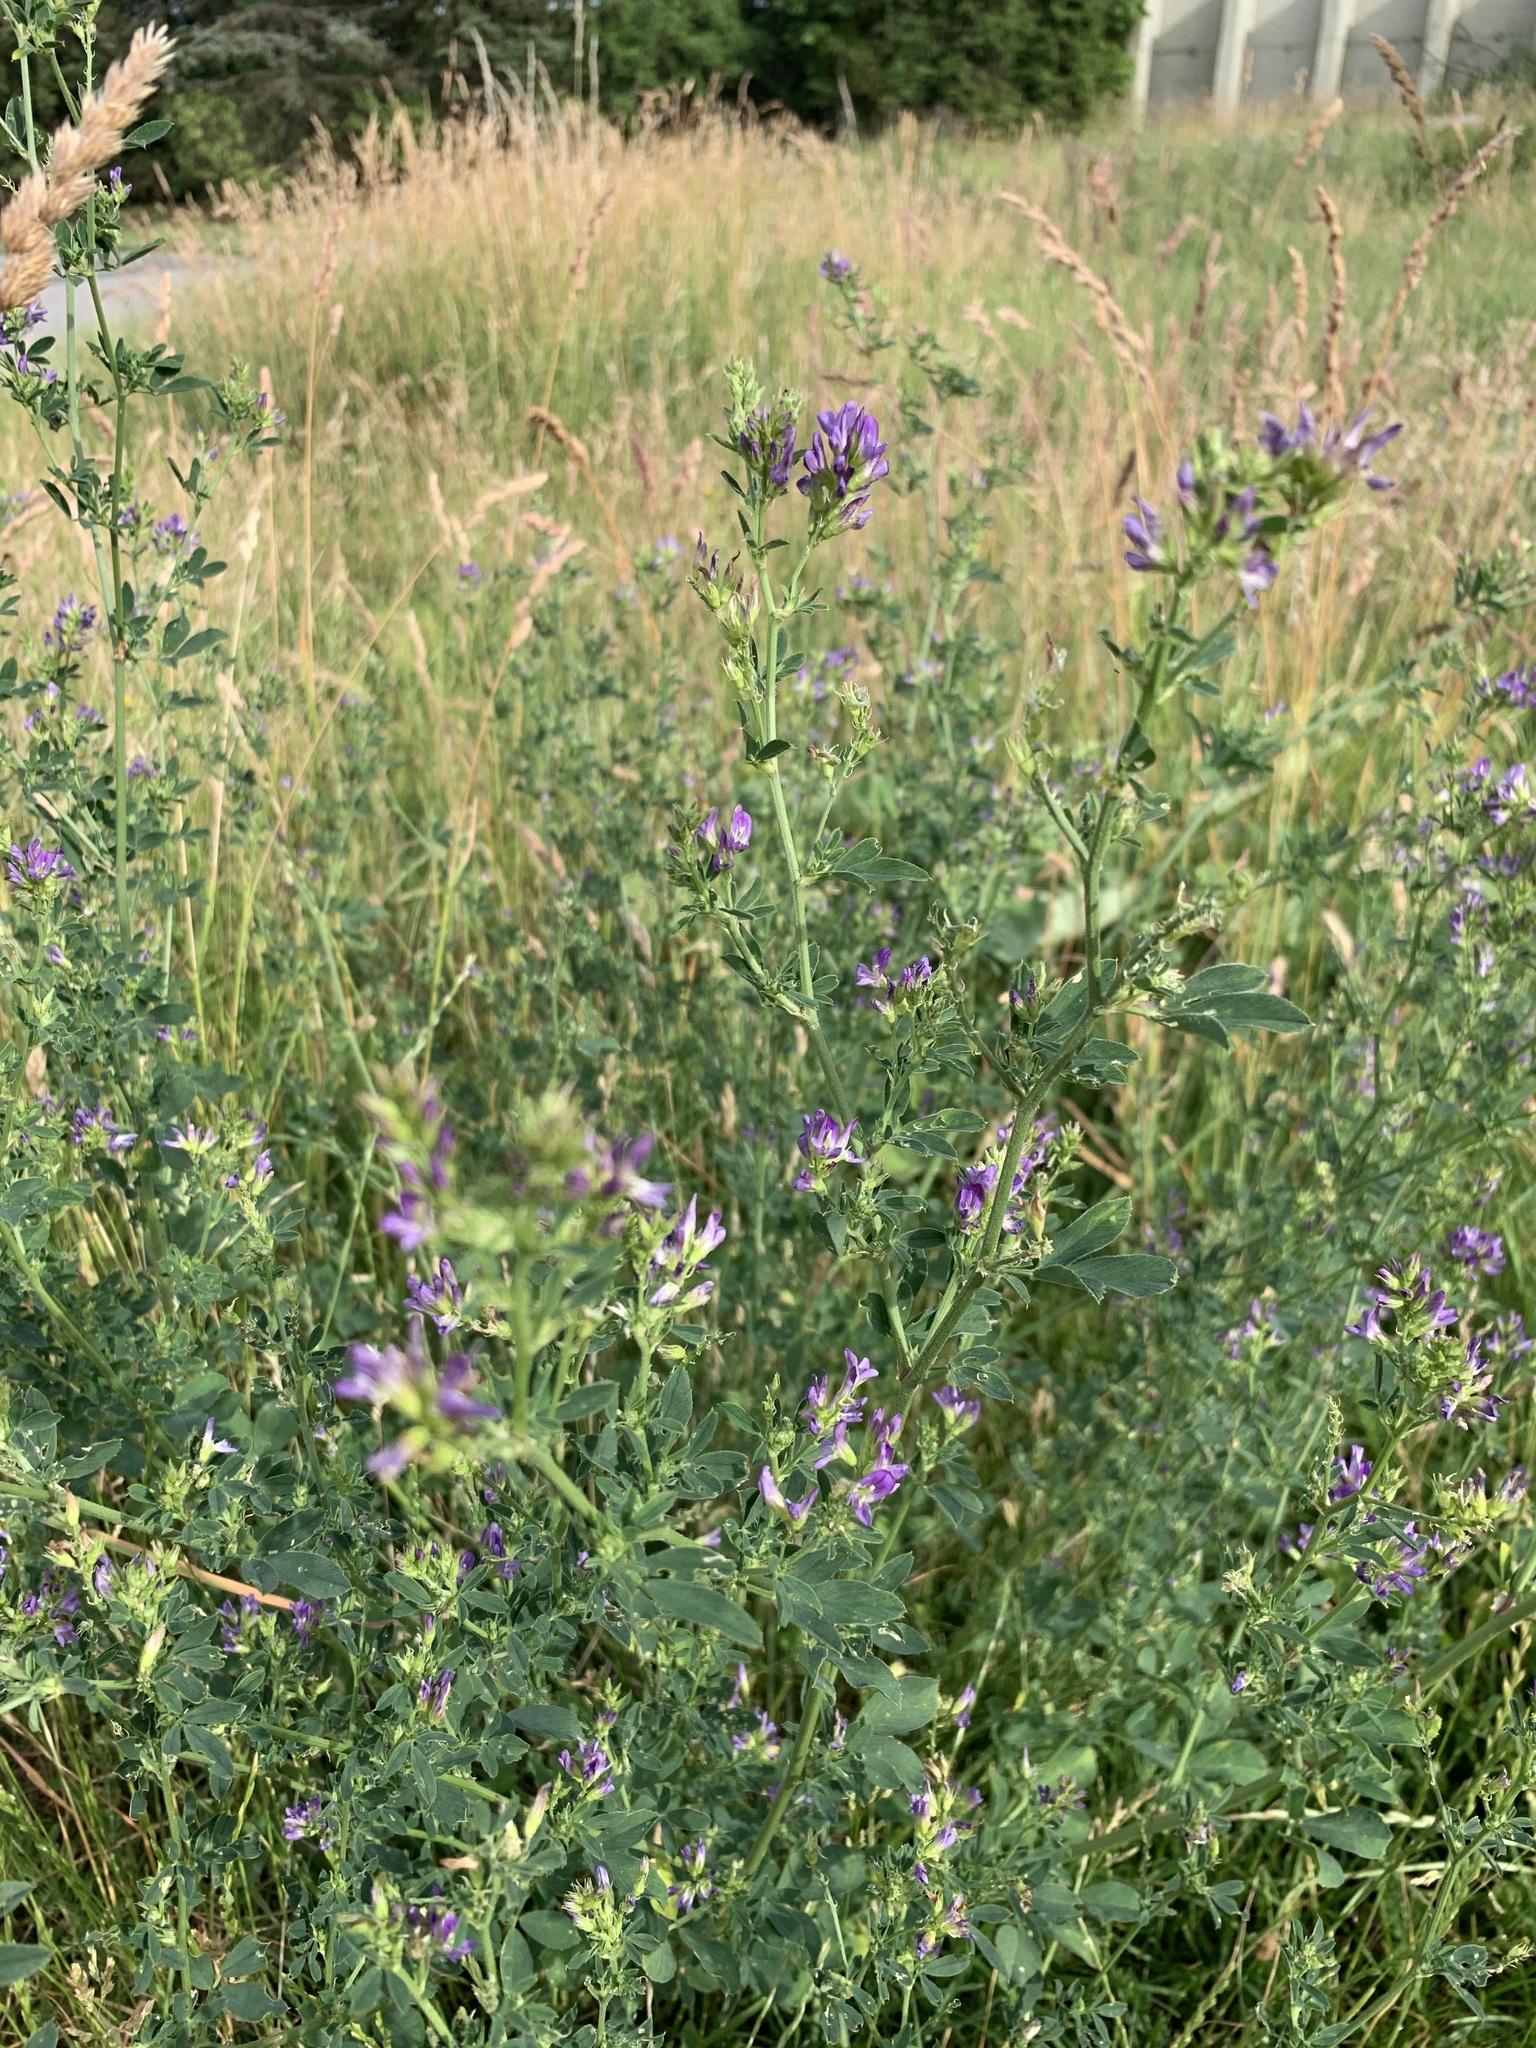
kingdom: Plantae
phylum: Tracheophyta
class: Magnoliopsida
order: Fabales
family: Fabaceae
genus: Medicago
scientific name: Medicago sativa
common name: Alfalfa
